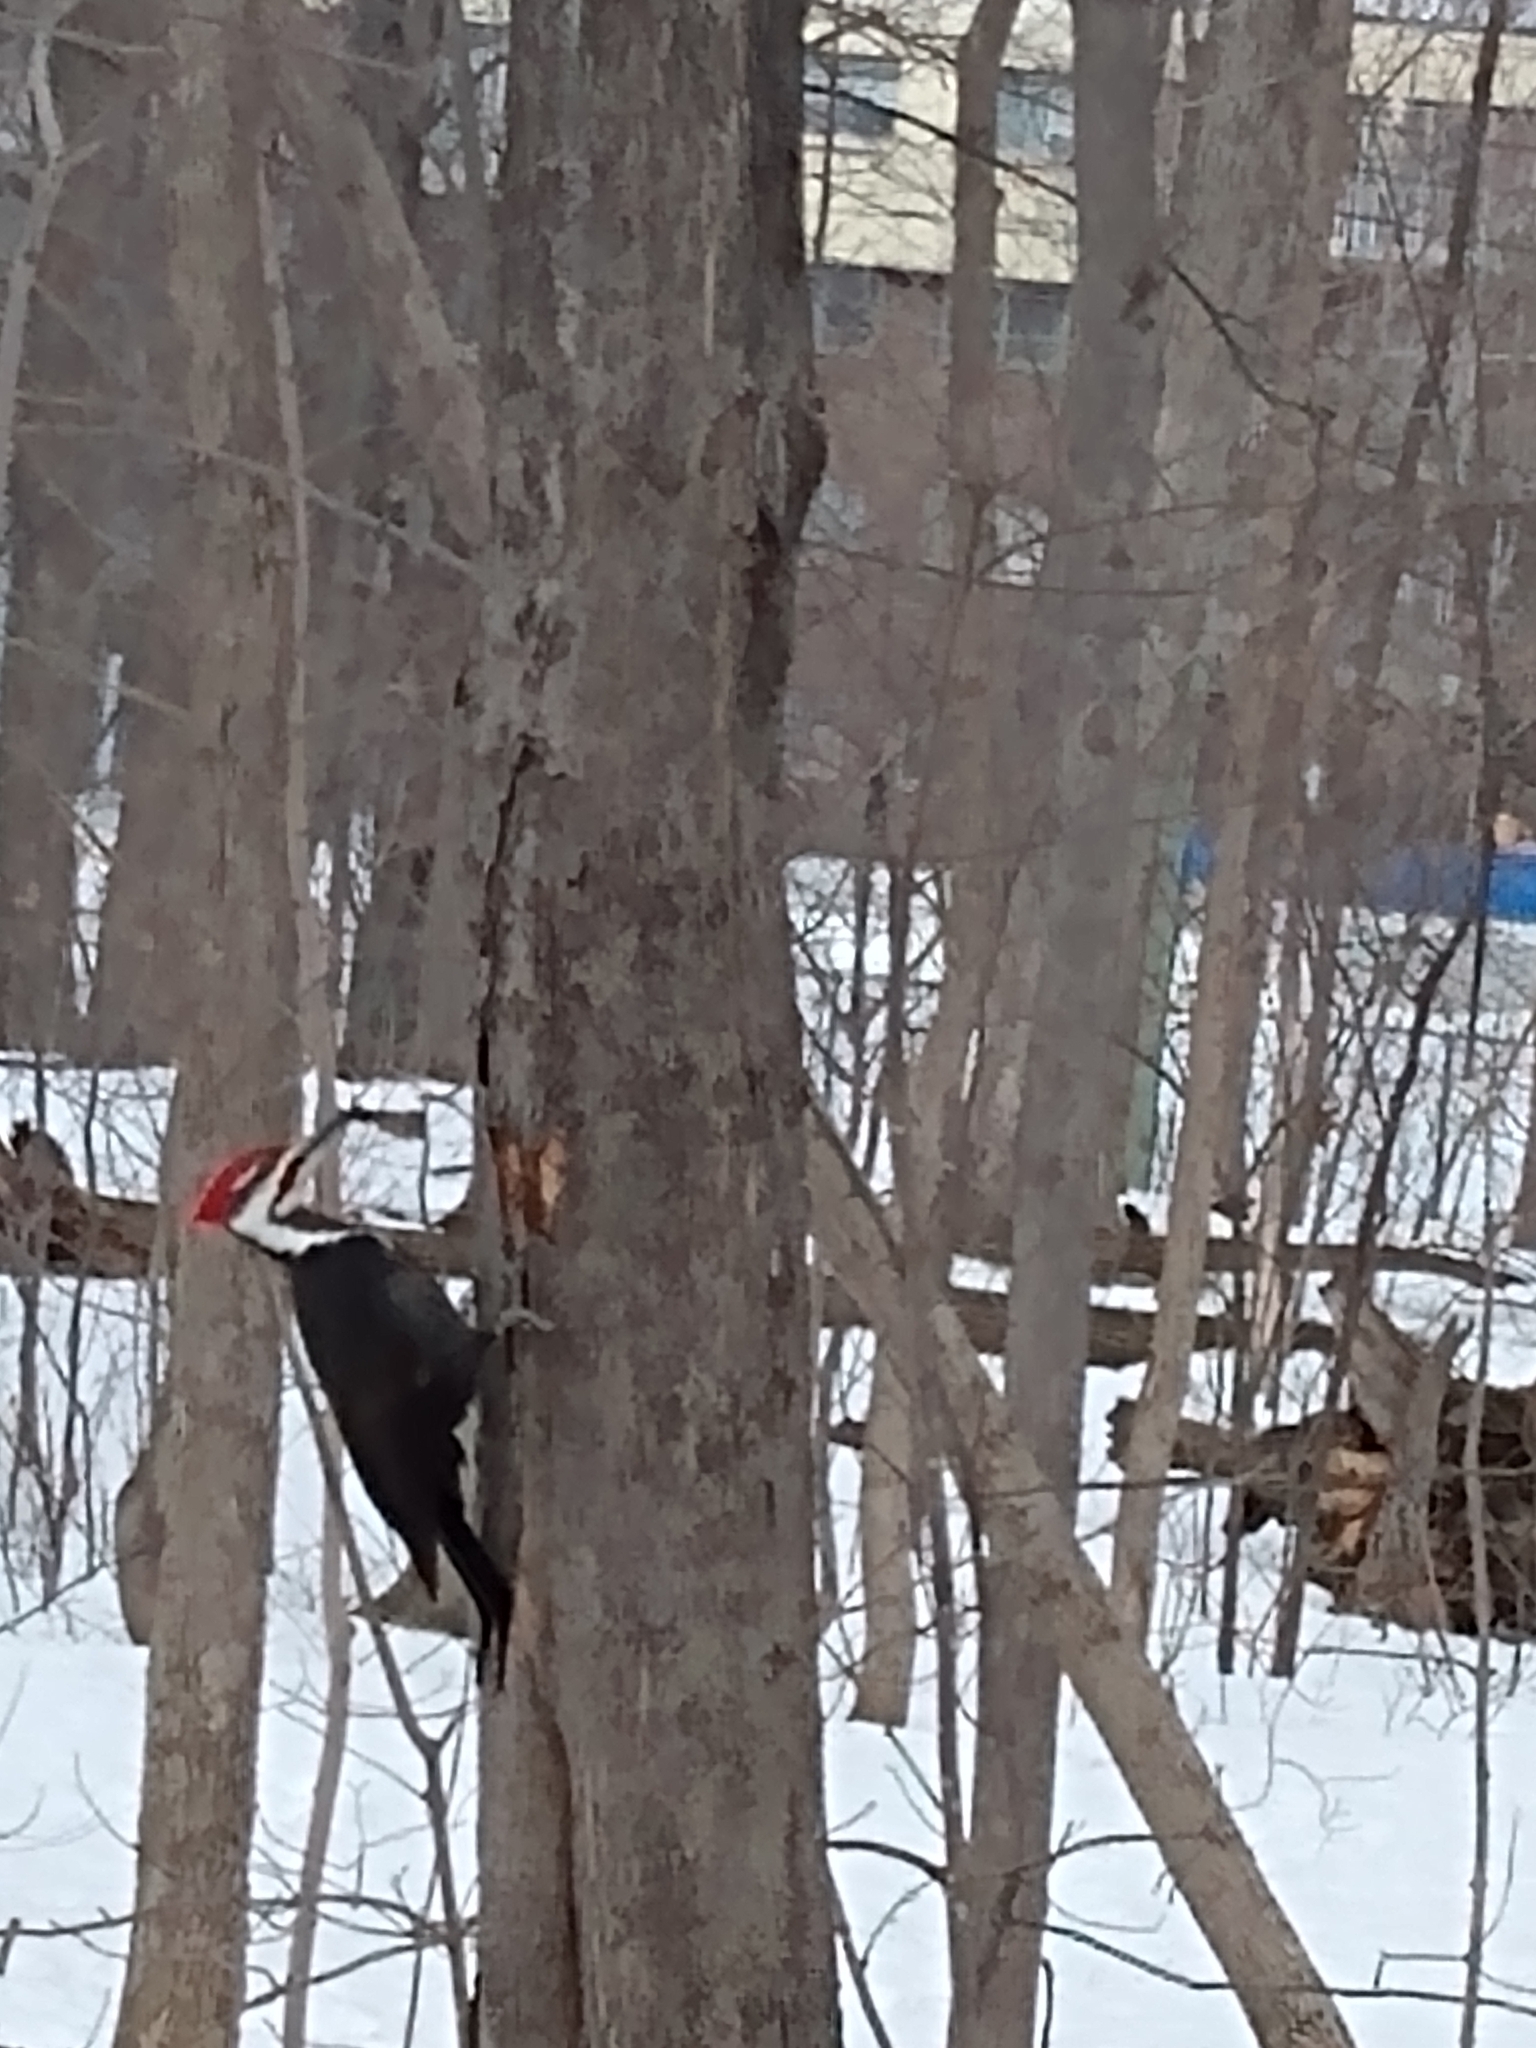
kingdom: Animalia
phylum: Chordata
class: Aves
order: Piciformes
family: Picidae
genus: Dryocopus
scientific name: Dryocopus pileatus
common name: Pileated woodpecker
